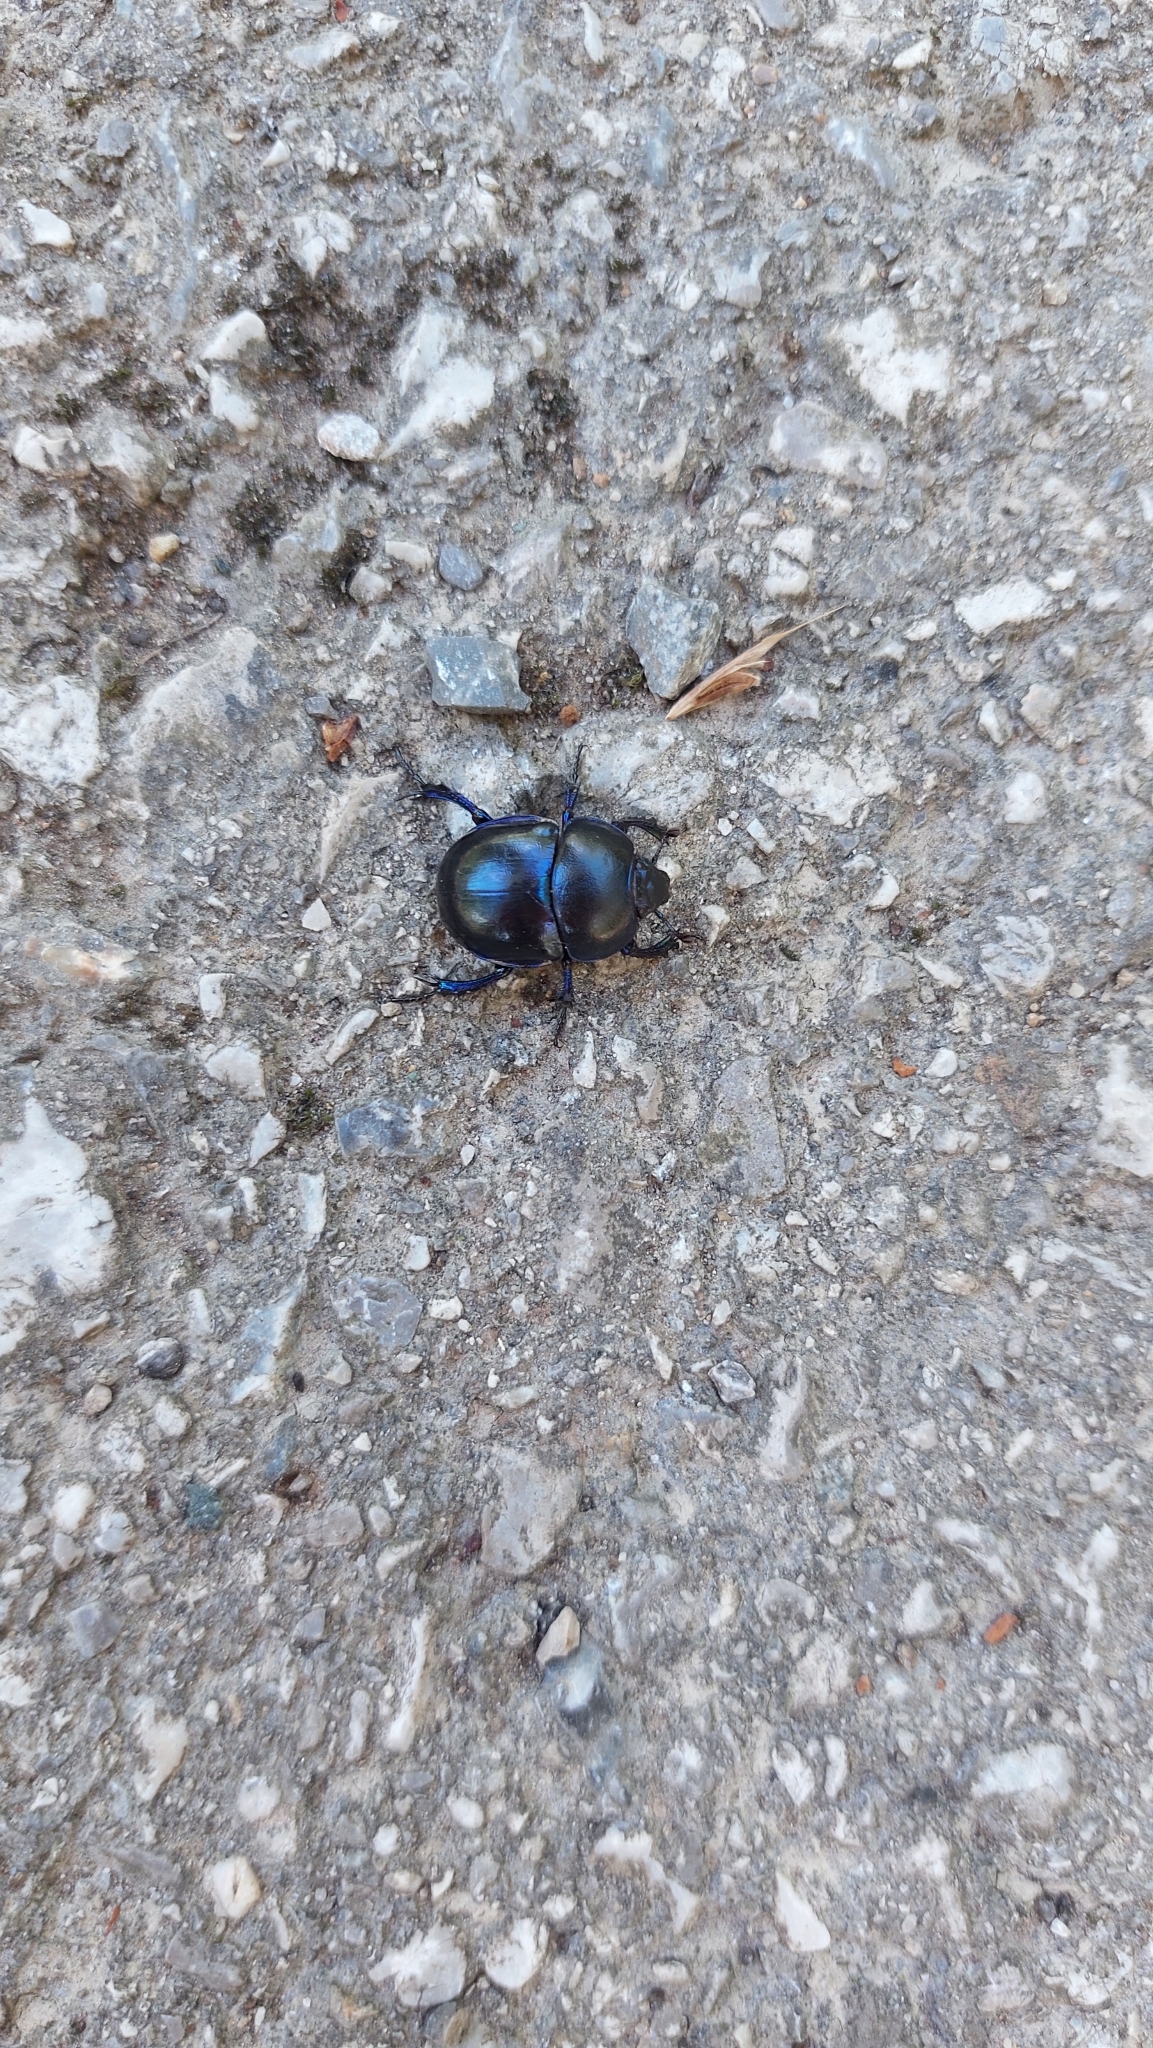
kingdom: Animalia
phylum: Arthropoda
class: Insecta
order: Coleoptera
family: Geotrupidae
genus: Trypocopris
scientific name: Trypocopris vernalis
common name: Spring dumbledor
